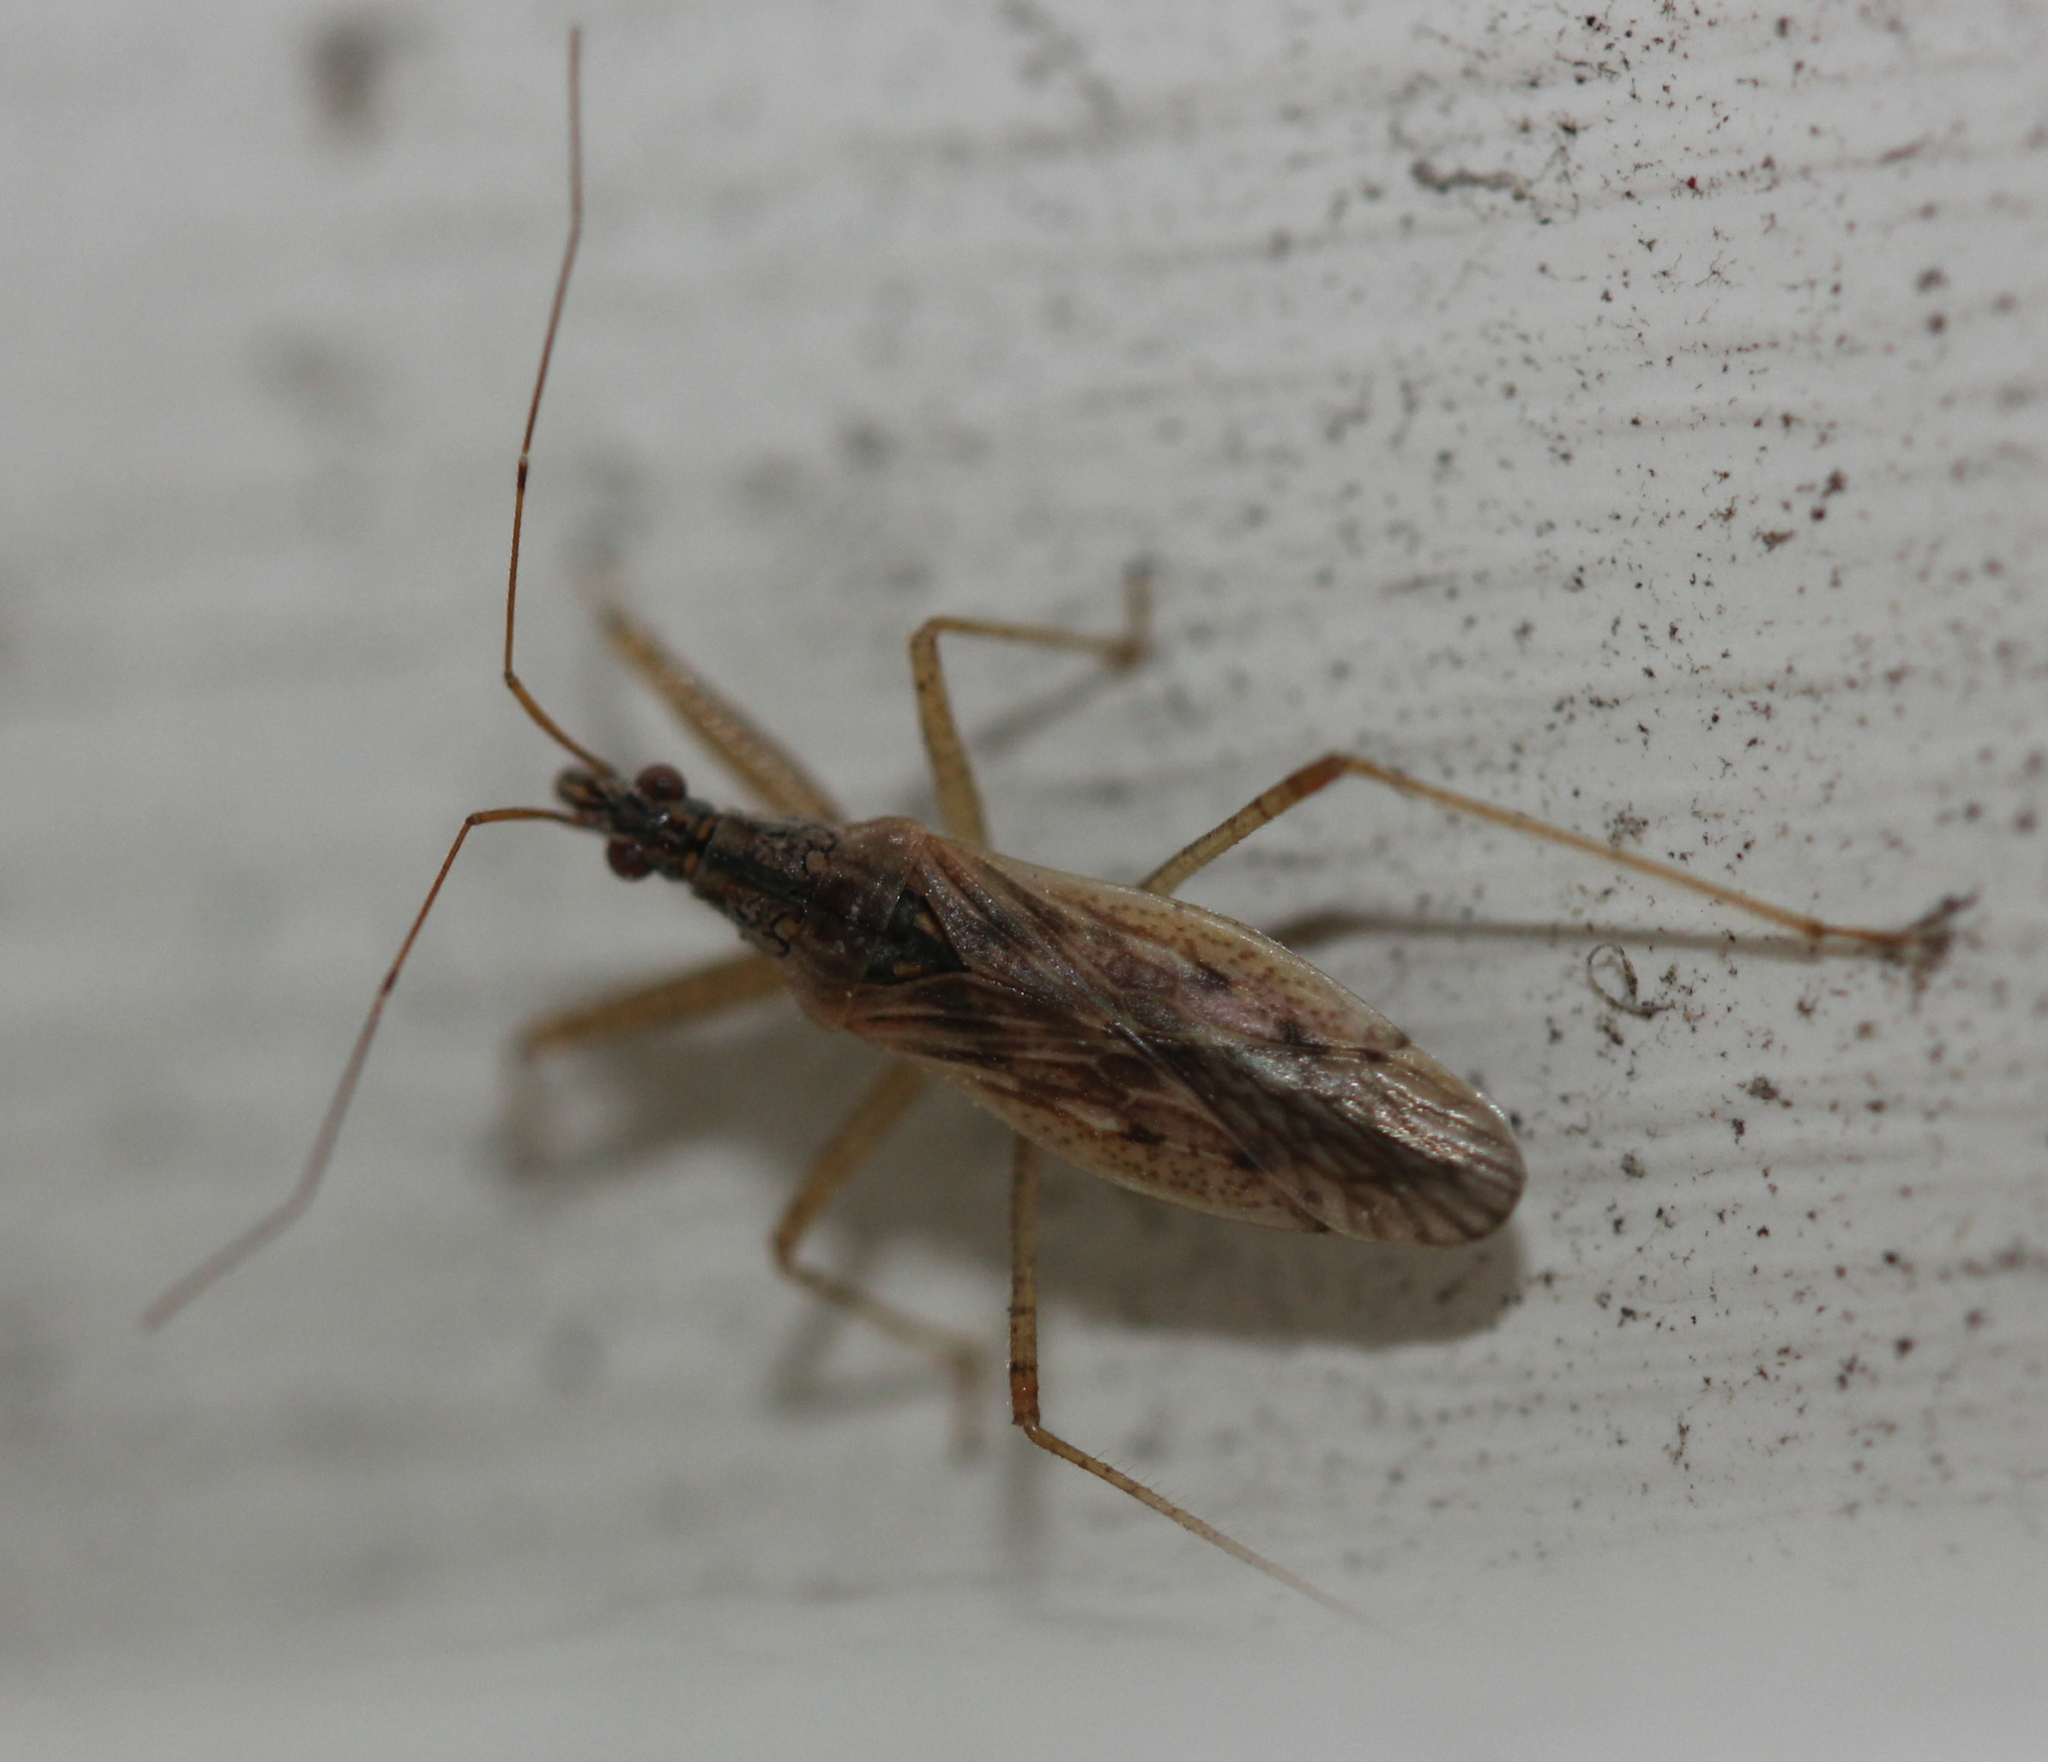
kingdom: Animalia
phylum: Arthropoda
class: Insecta
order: Hemiptera
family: Nabidae
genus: Nabis
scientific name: Nabis roseipennis
